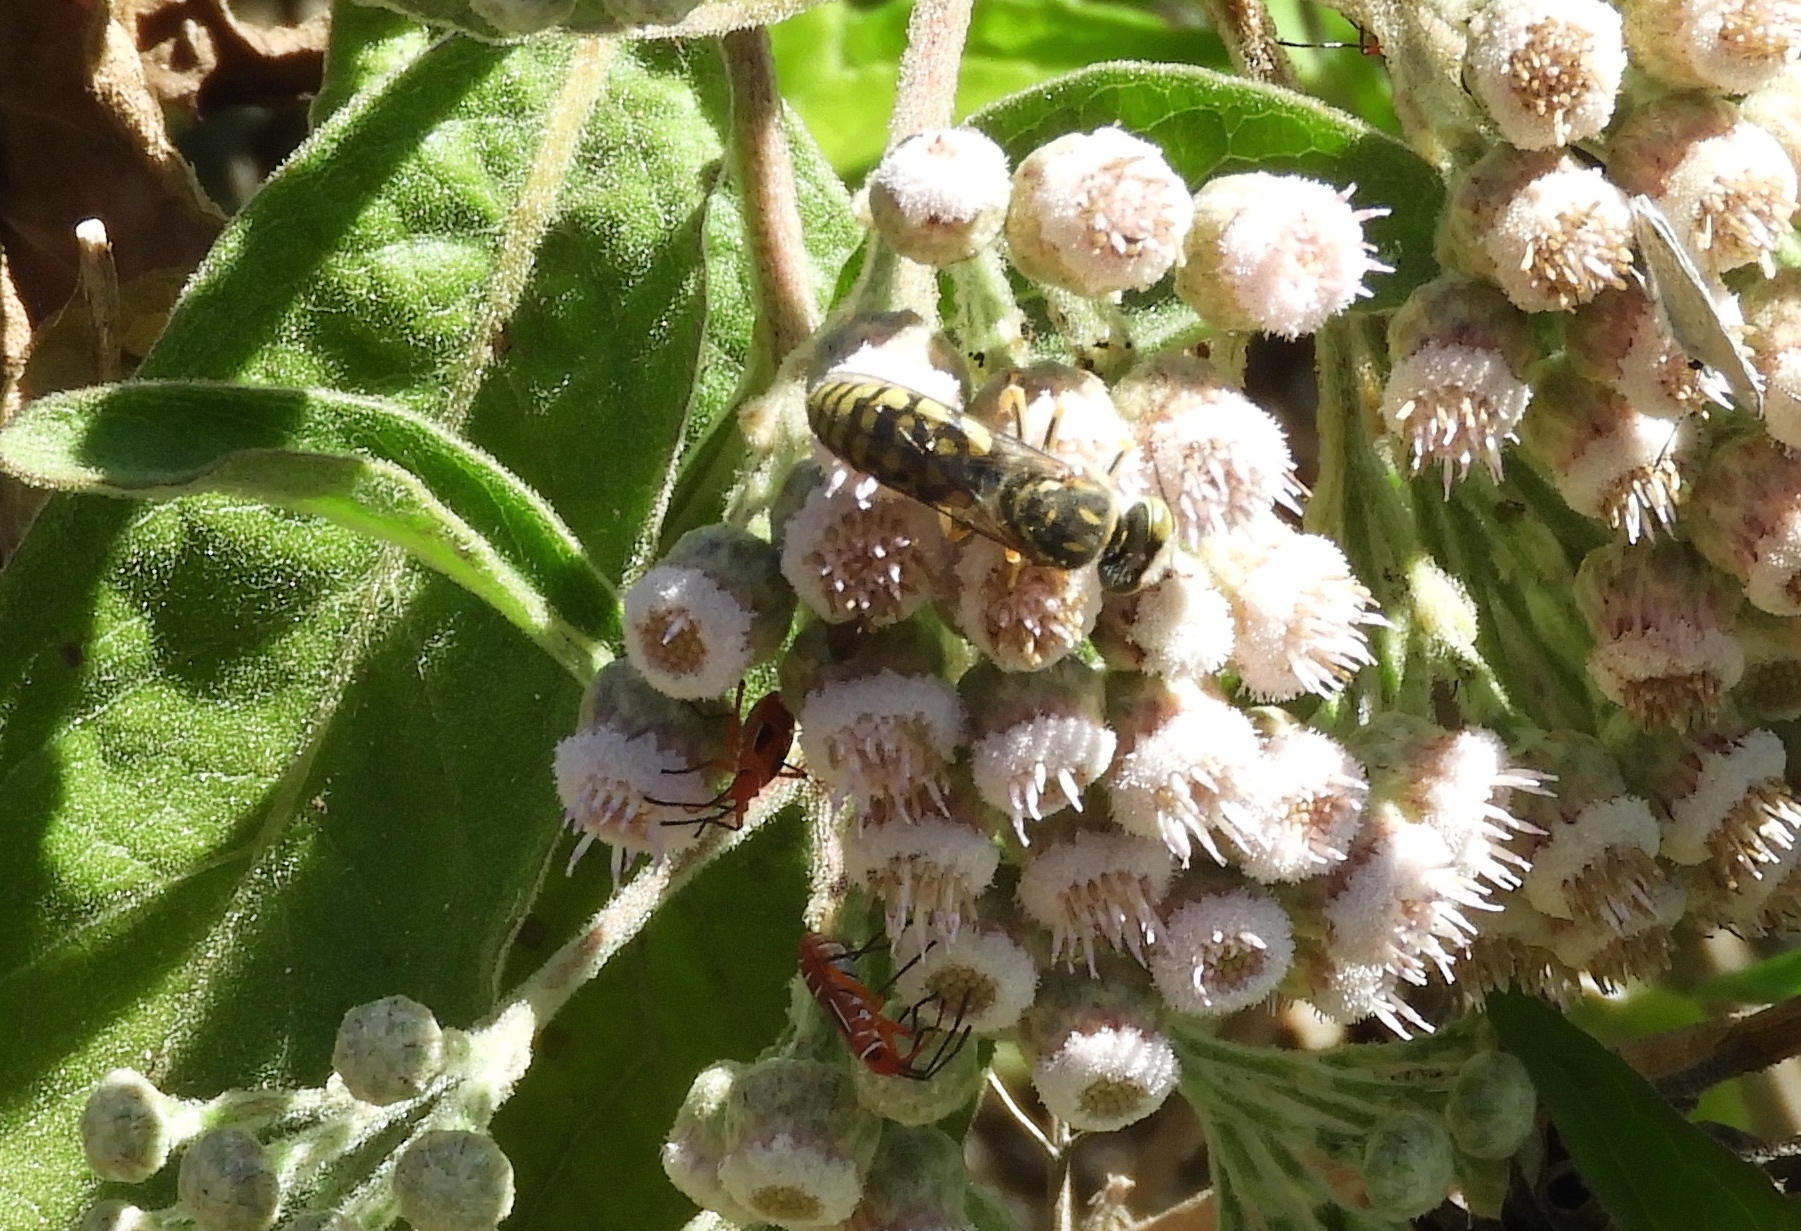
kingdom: Plantae
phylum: Tracheophyta
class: Magnoliopsida
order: Asterales
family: Asteraceae
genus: Pluchea
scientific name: Pluchea carolinensis
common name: Marsh fleabane
